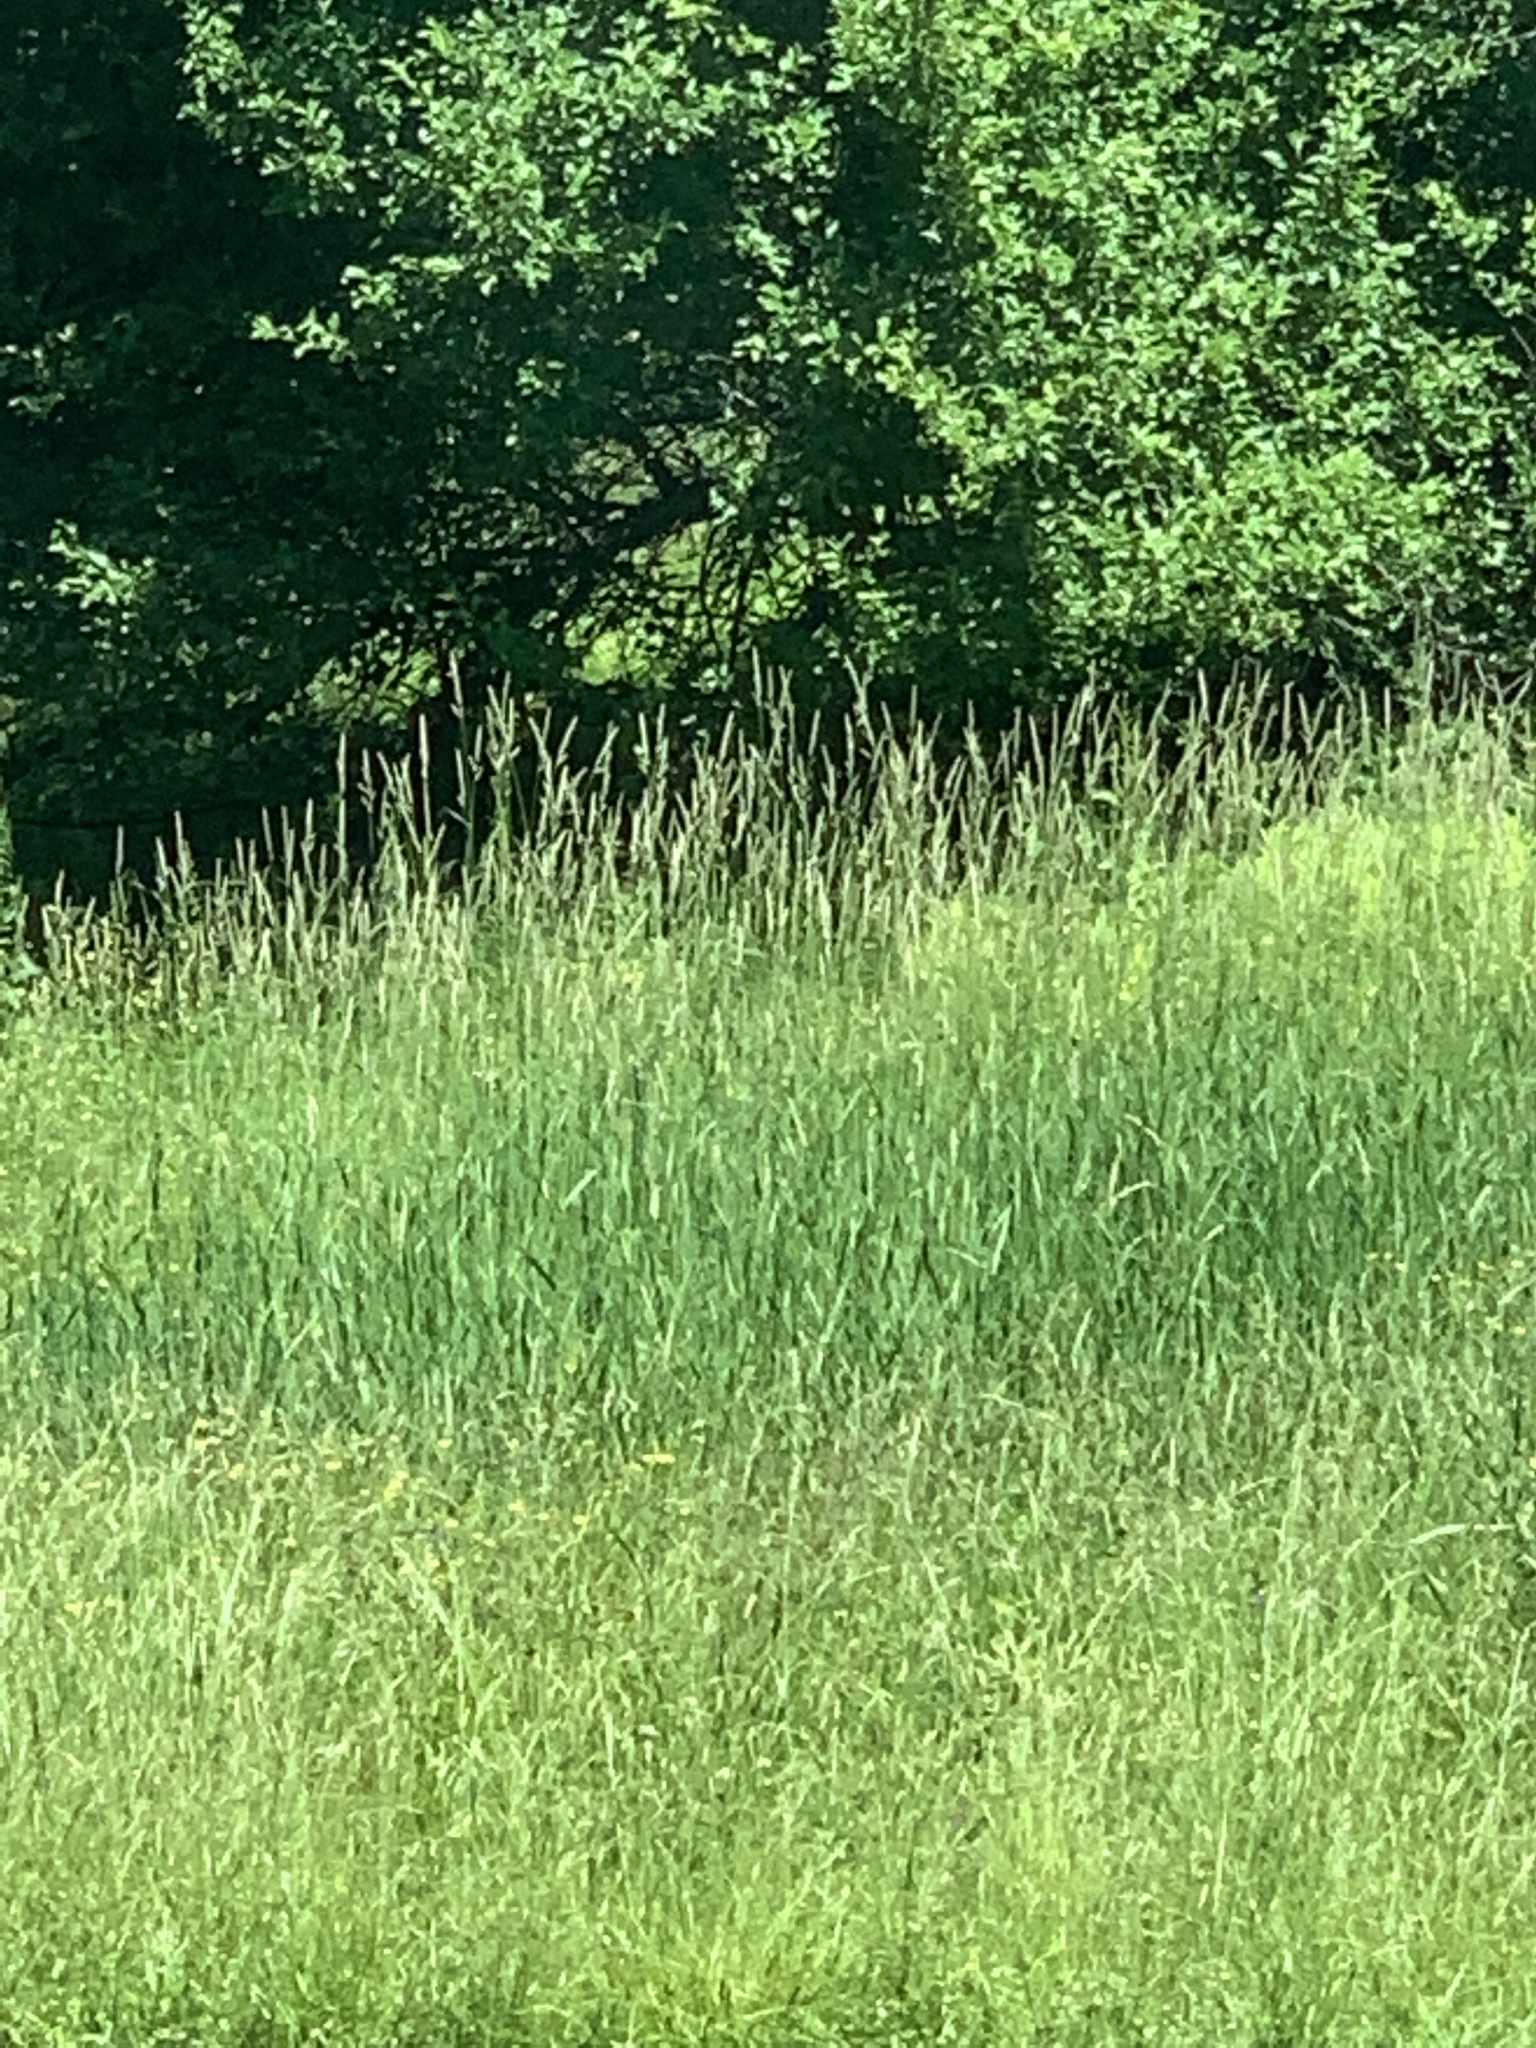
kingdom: Plantae
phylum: Tracheophyta
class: Liliopsida
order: Poales
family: Poaceae
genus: Phalaris
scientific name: Phalaris arundinacea
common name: Reed canary-grass
